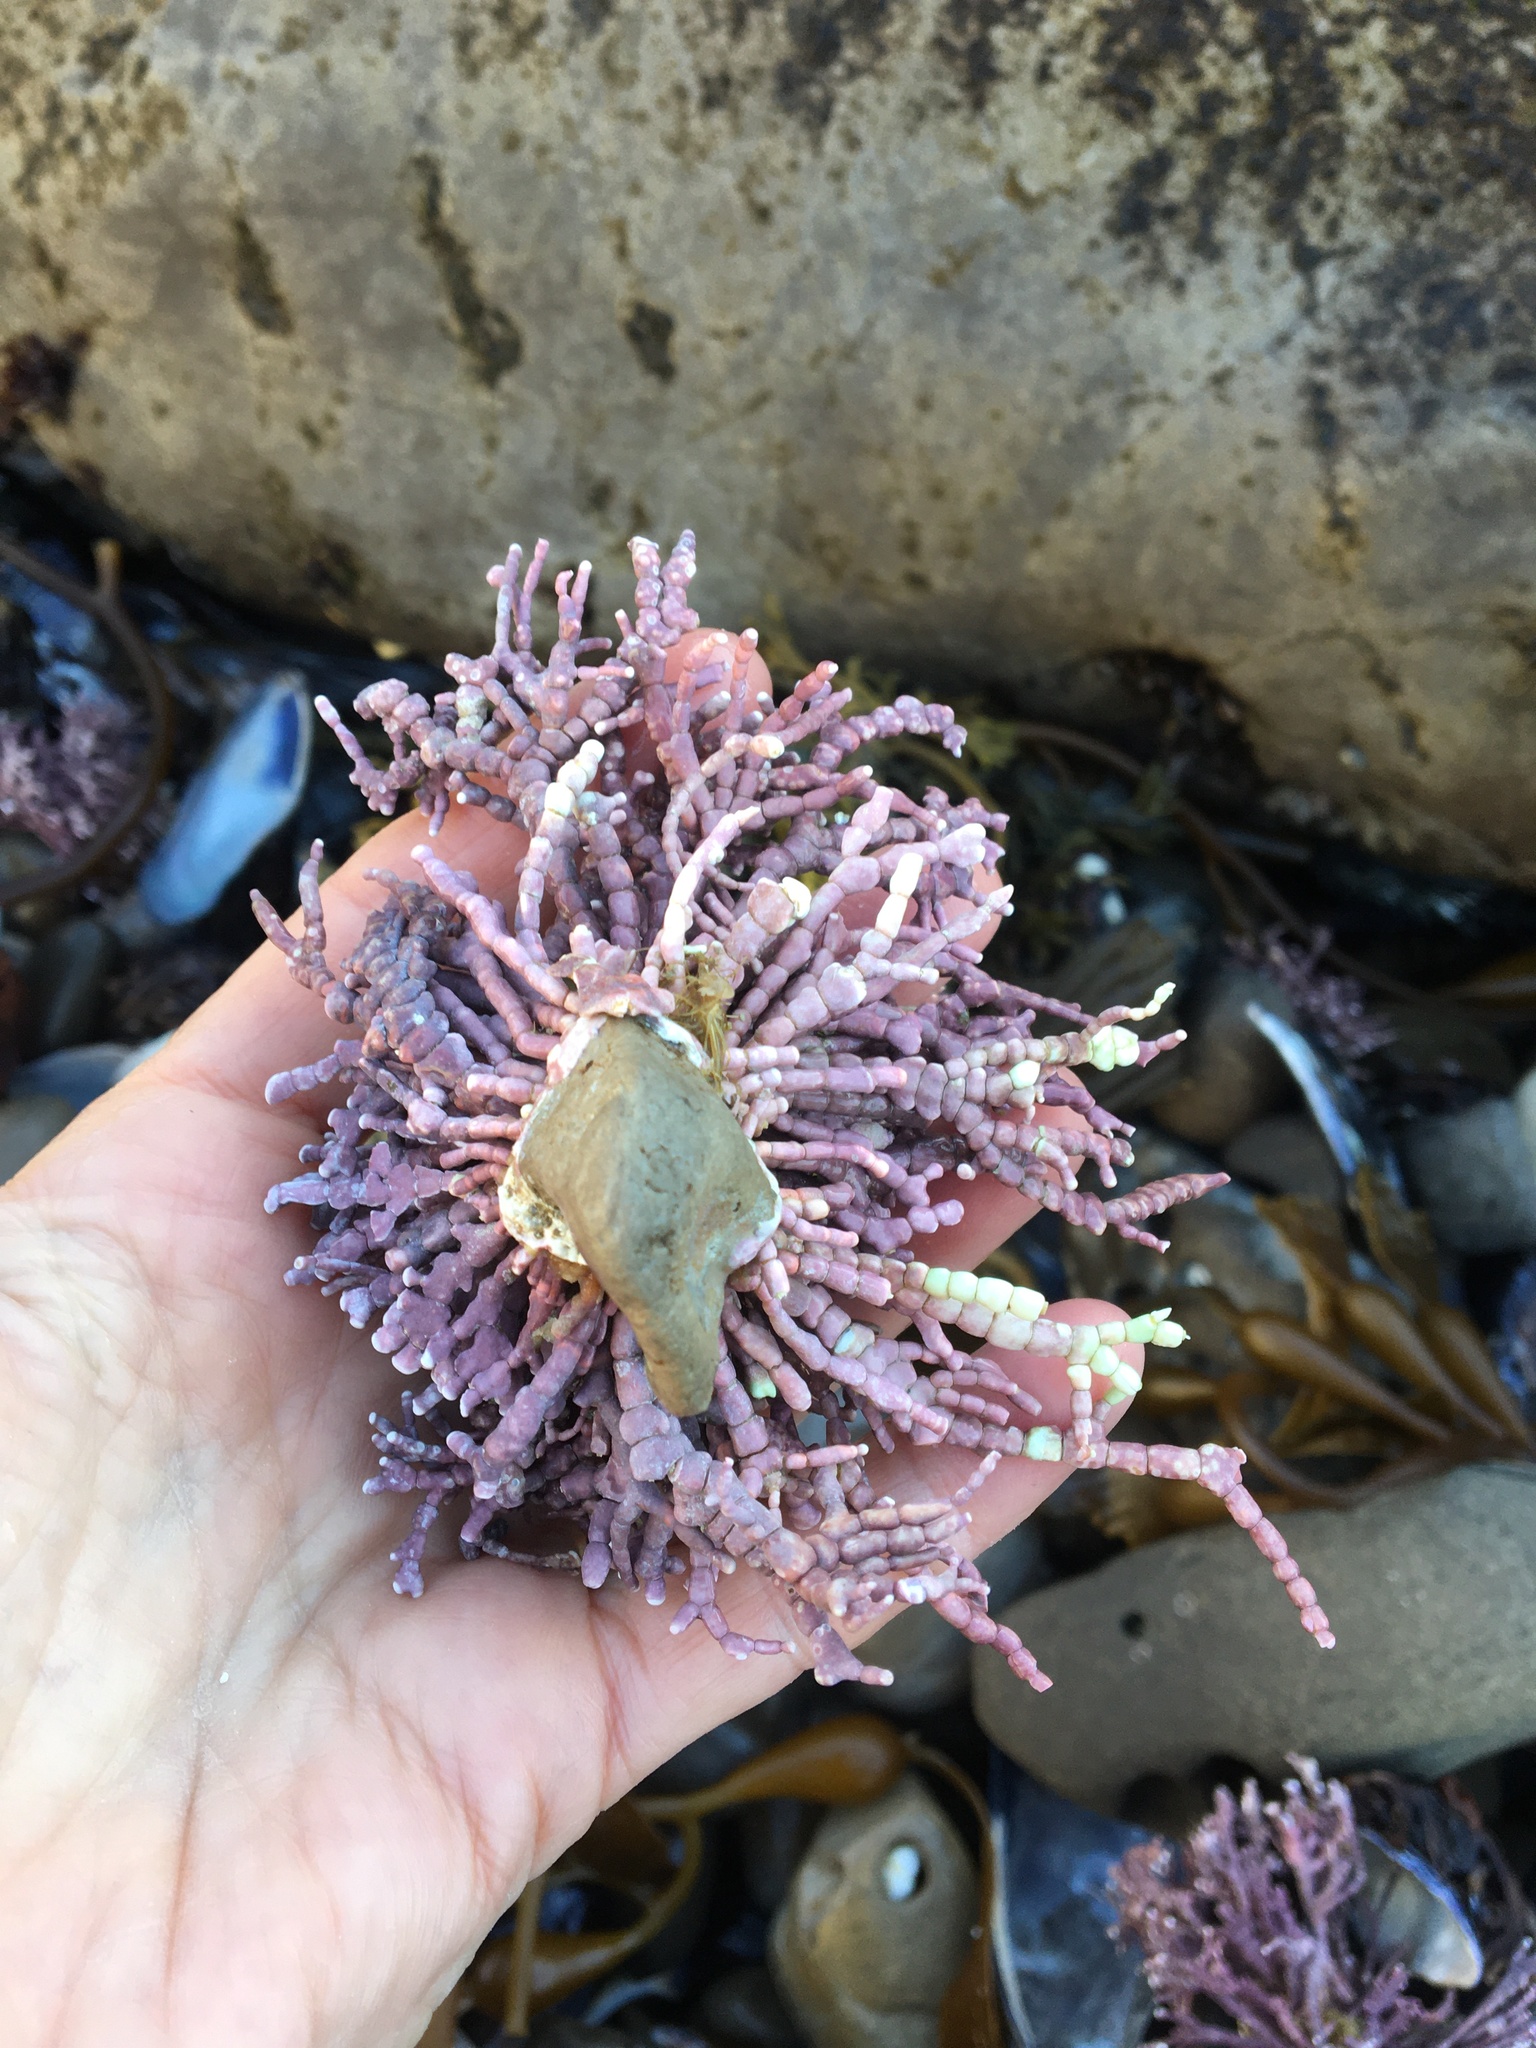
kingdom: Plantae
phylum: Rhodophyta
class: Florideophyceae
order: Corallinales
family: Corallinaceae
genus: Calliarthron
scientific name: Calliarthron tuberculosum
